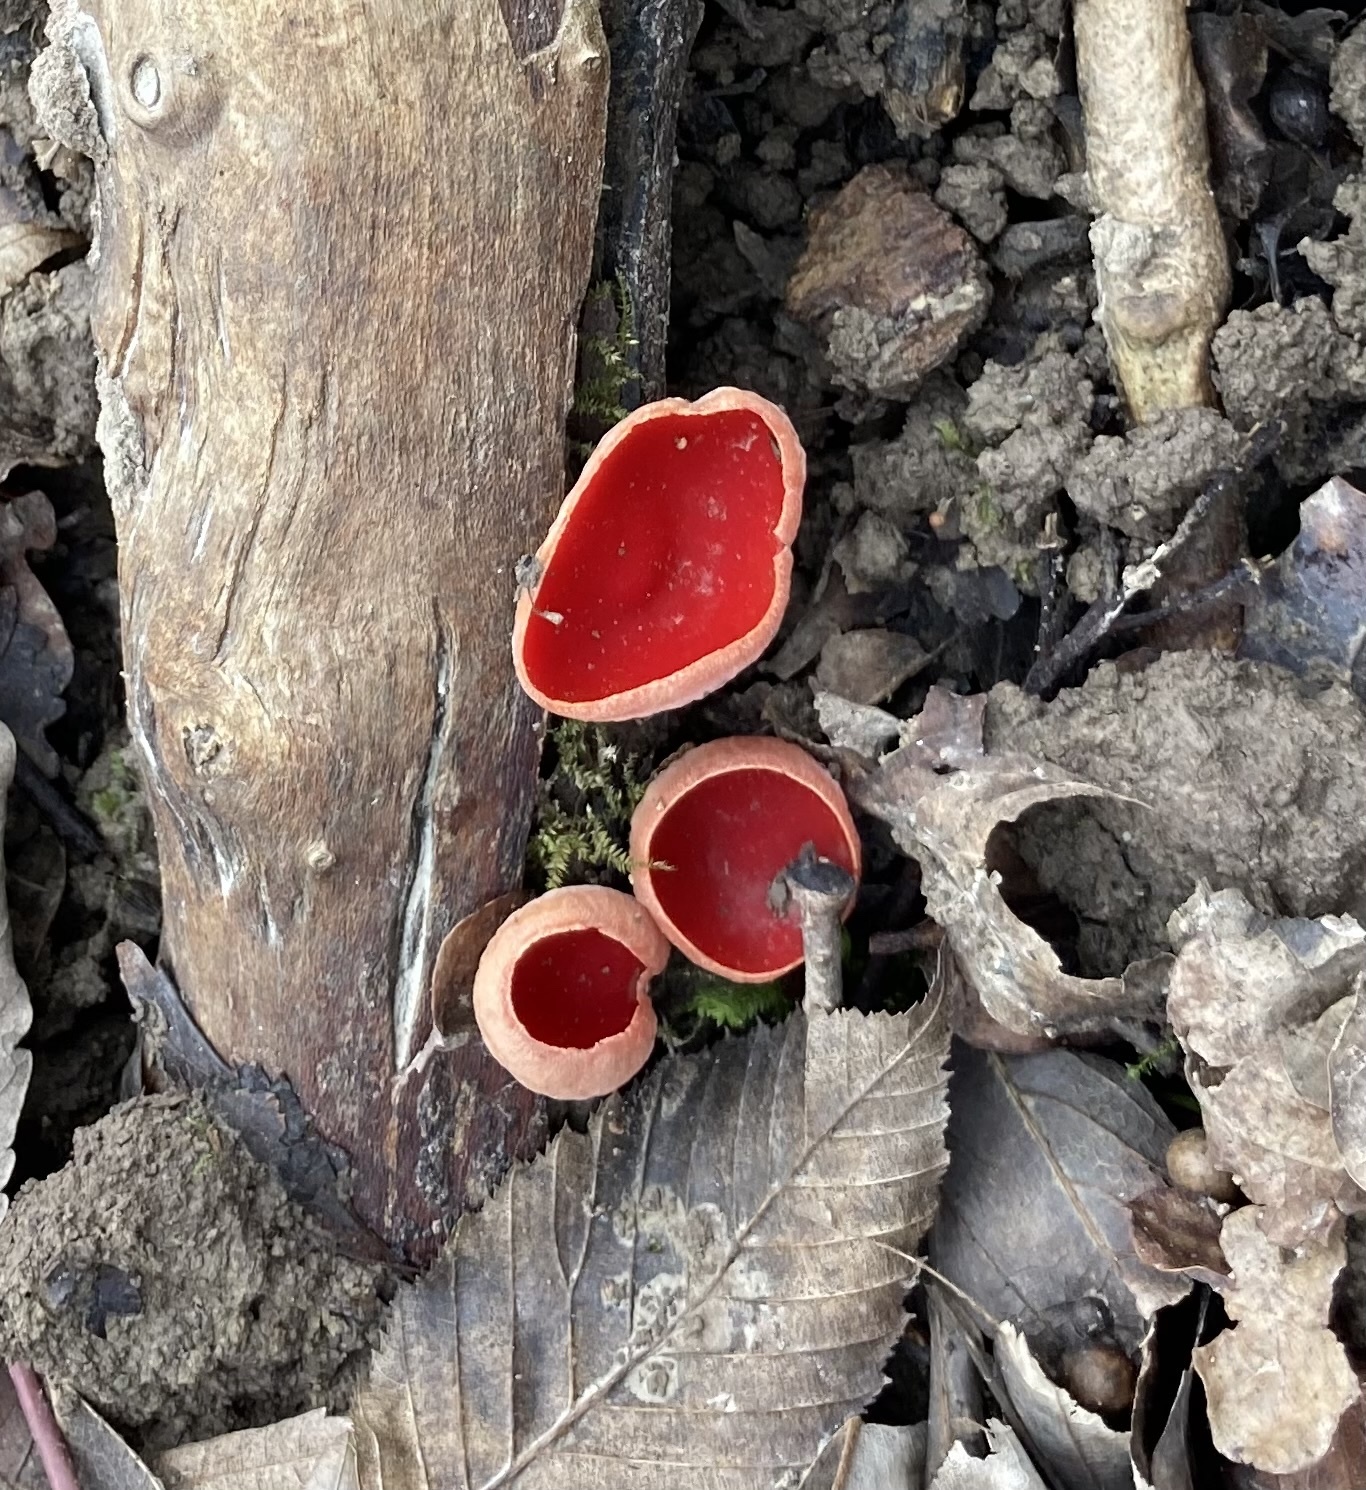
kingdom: Fungi
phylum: Ascomycota
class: Pezizomycetes
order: Pezizales
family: Sarcoscyphaceae
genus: Sarcoscypha
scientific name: Sarcoscypha
